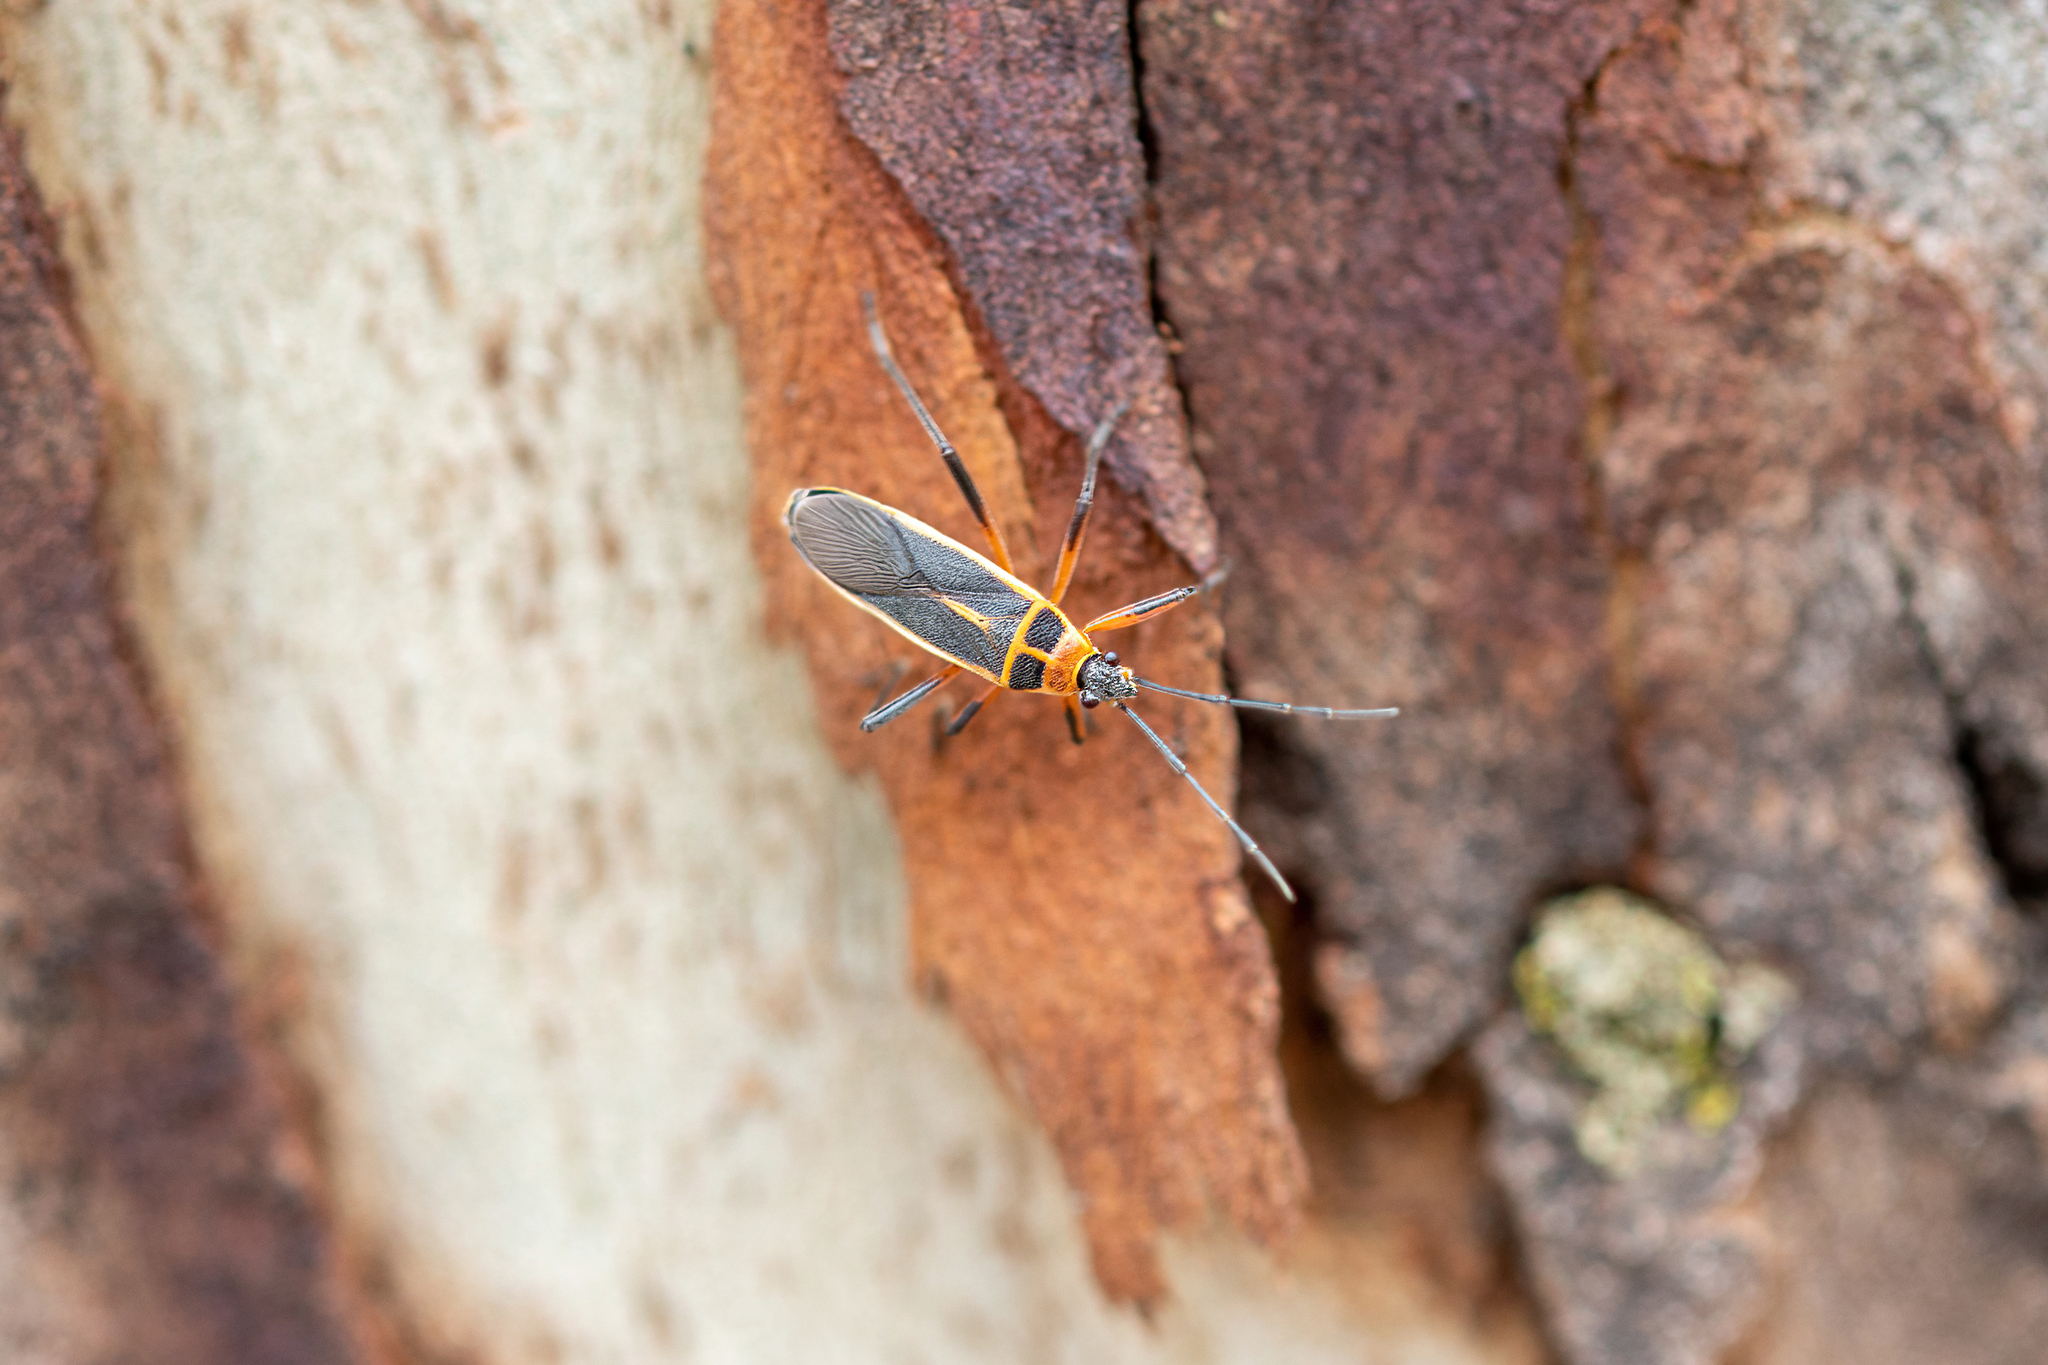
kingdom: Animalia
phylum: Arthropoda
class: Insecta
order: Hemiptera
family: Largidae
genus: Stenomacra
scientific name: Stenomacra marginella
